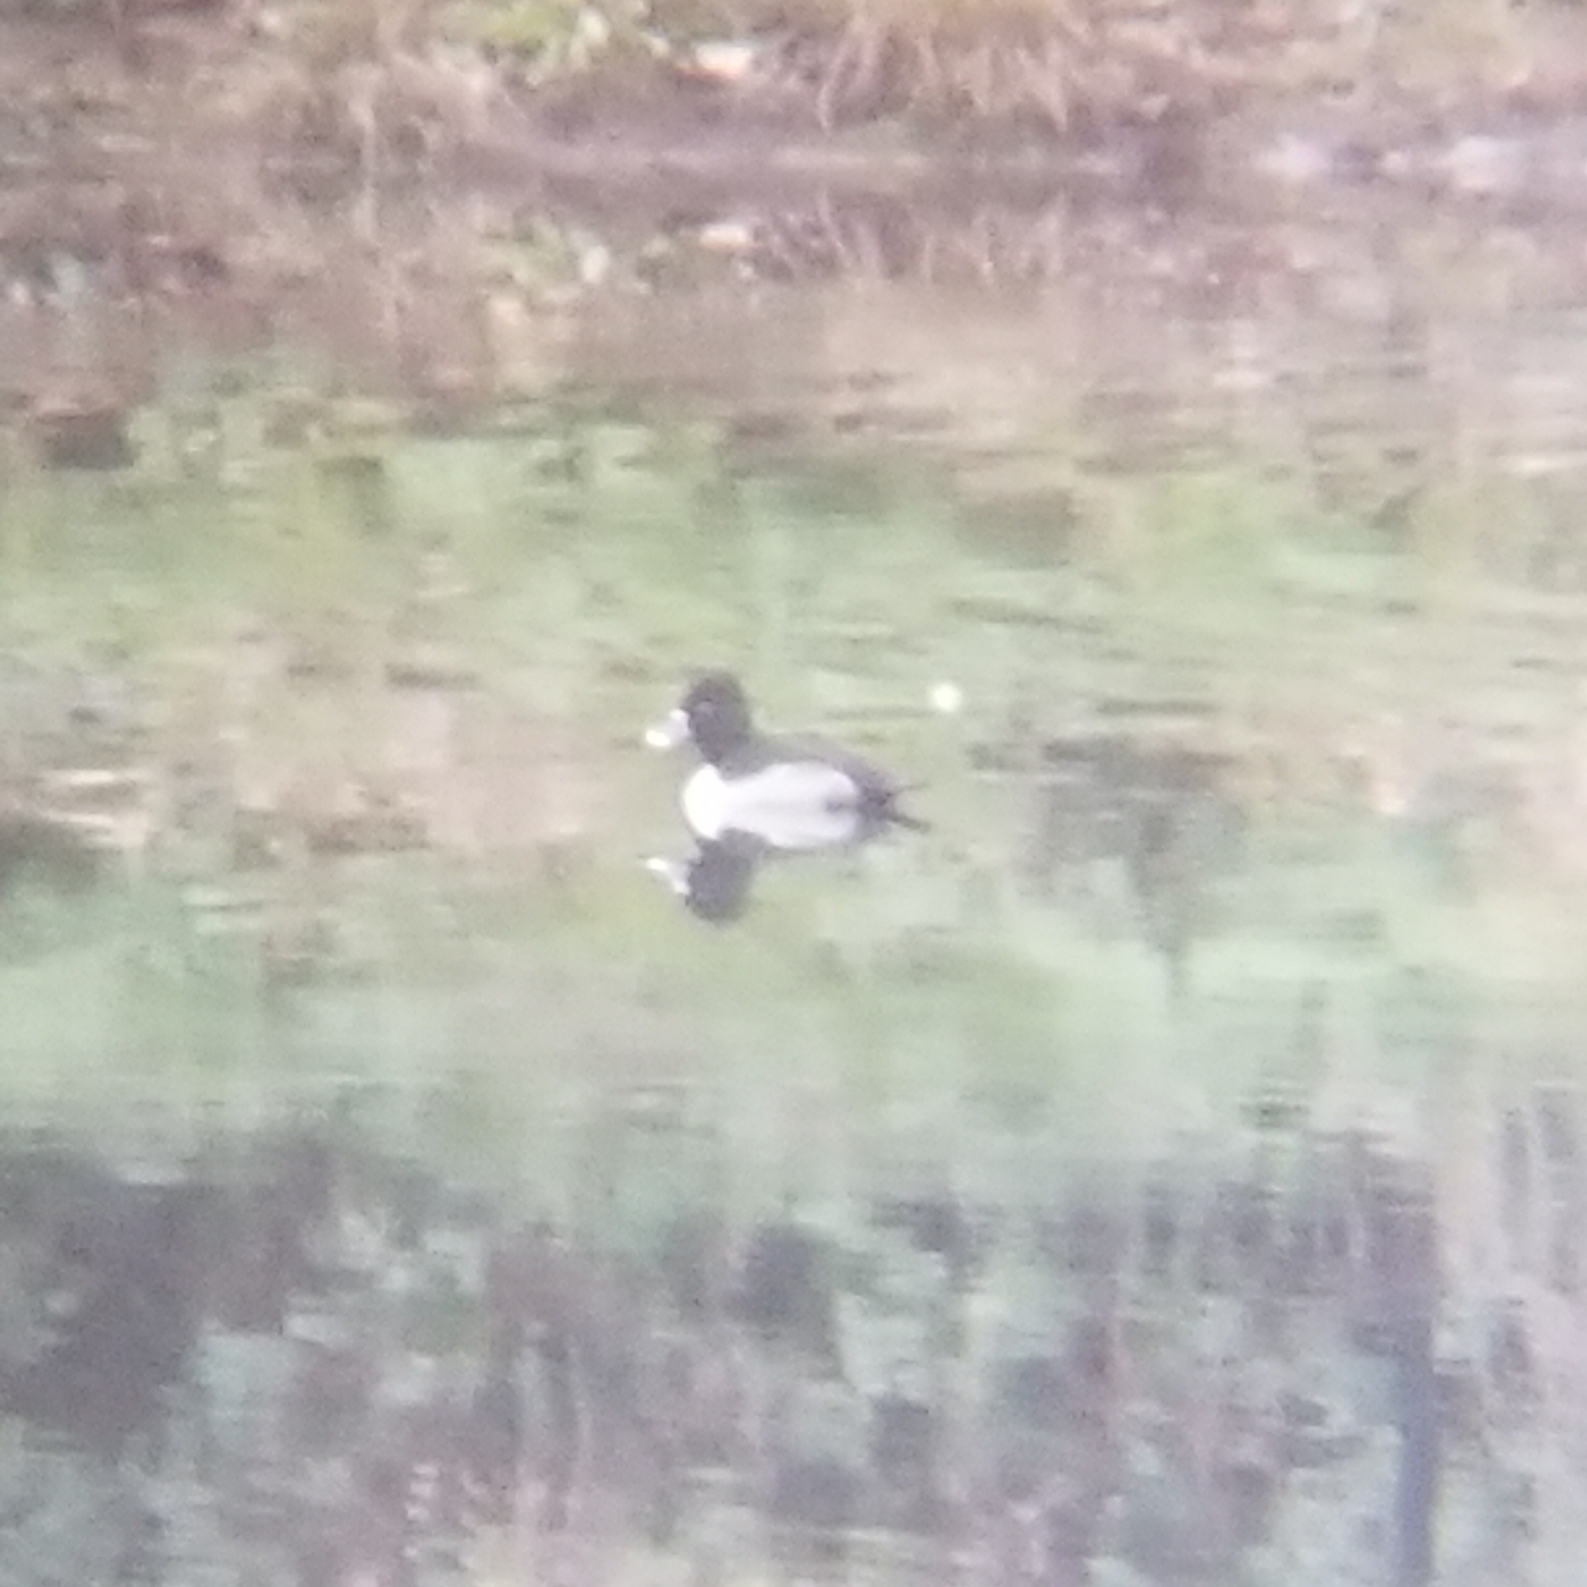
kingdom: Animalia
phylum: Chordata
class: Aves
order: Anseriformes
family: Anatidae
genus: Aythya
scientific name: Aythya collaris
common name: Ring-necked duck
